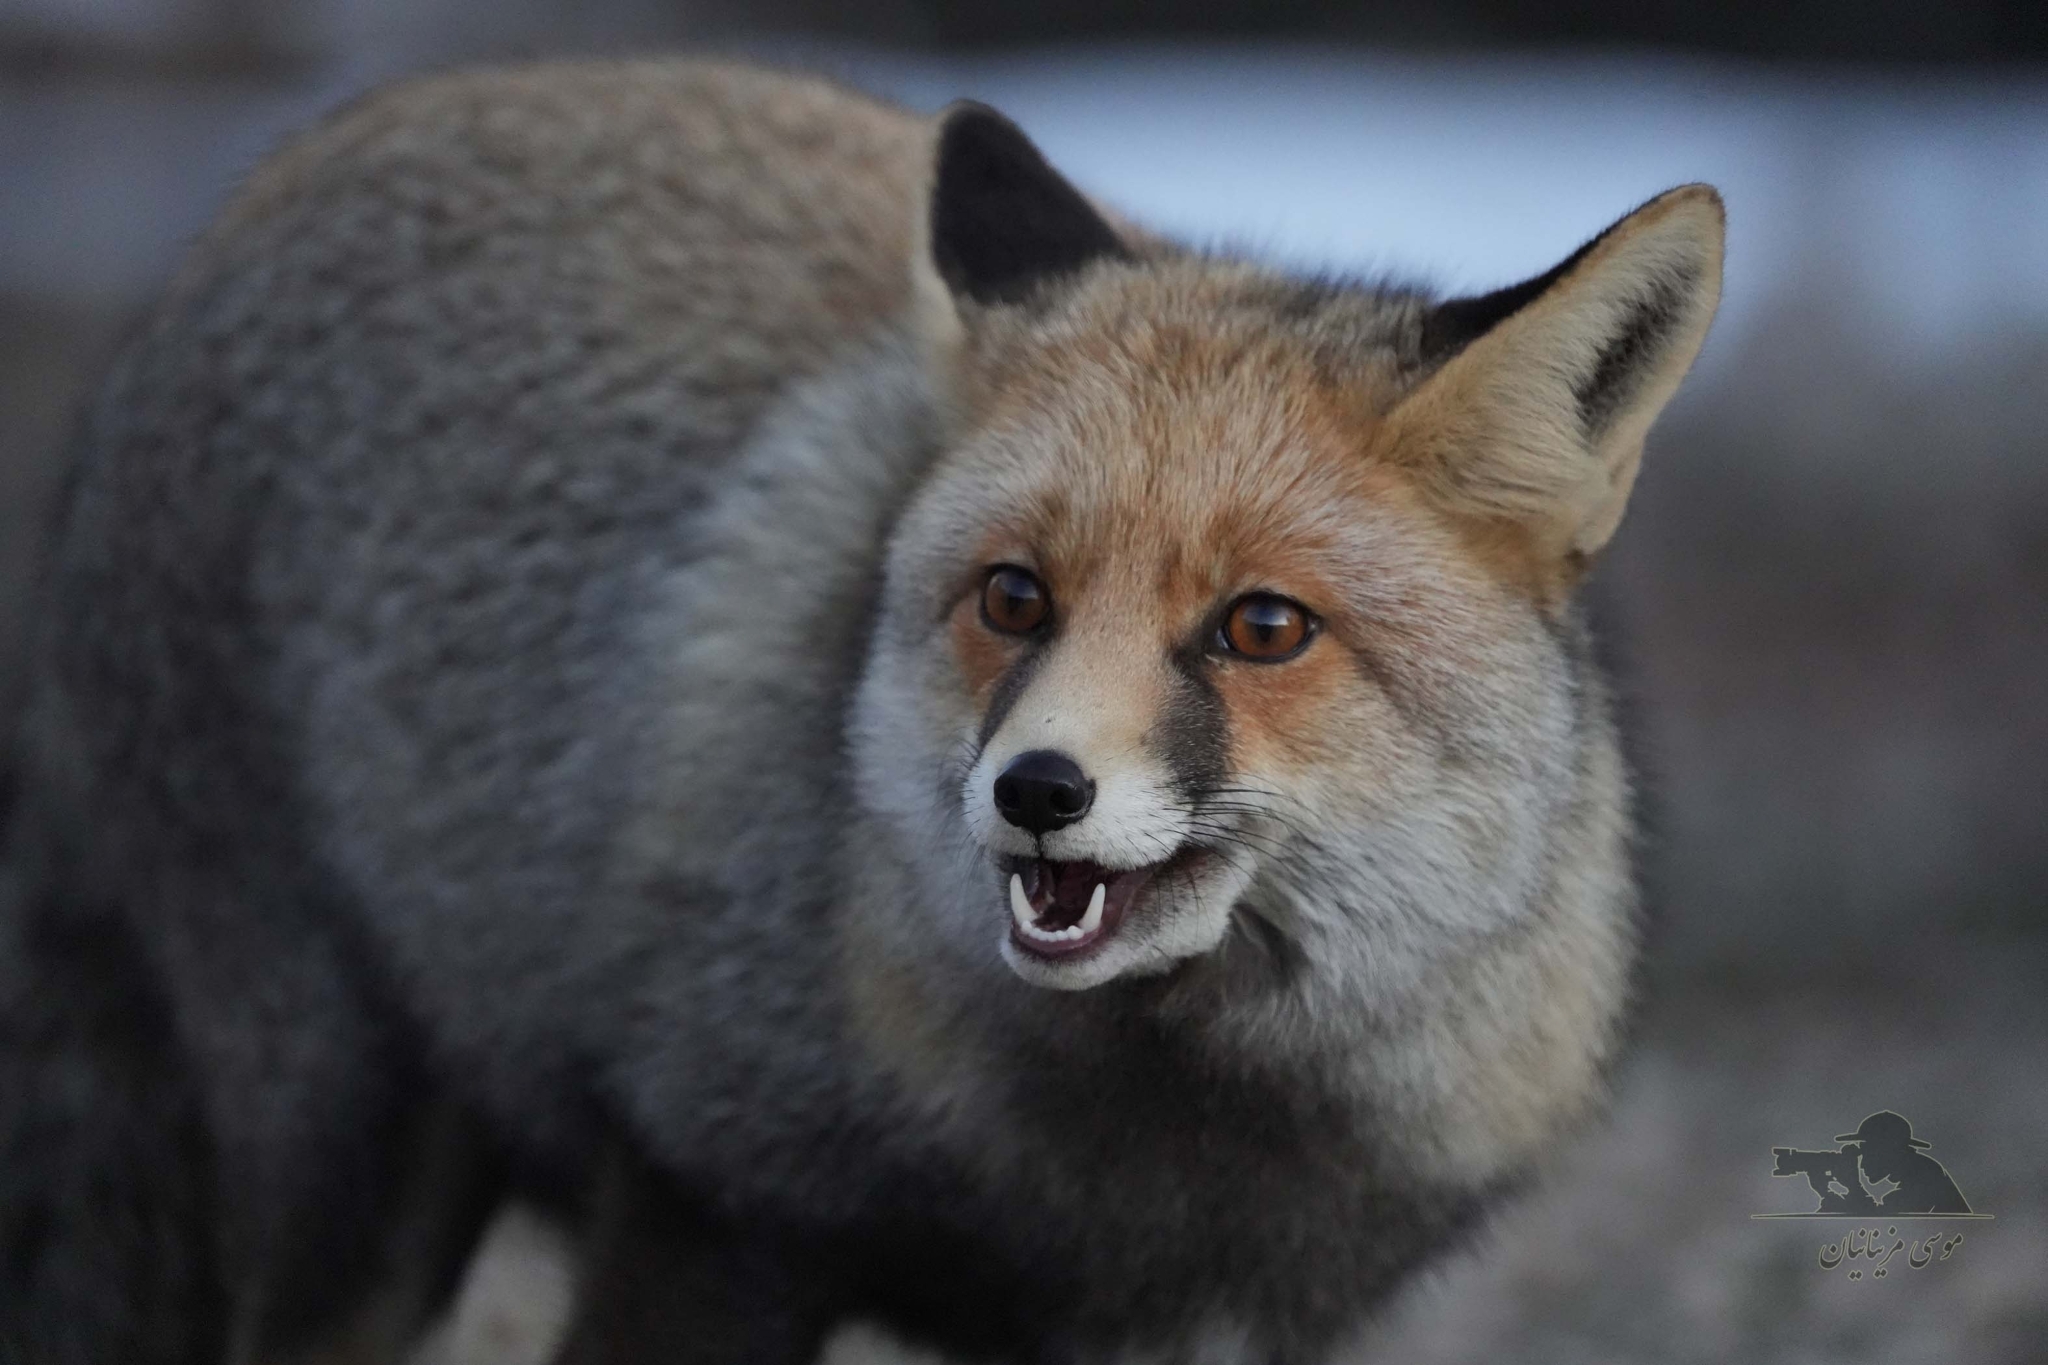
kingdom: Animalia
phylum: Chordata
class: Mammalia
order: Carnivora
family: Canidae
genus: Vulpes
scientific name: Vulpes vulpes
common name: Red fox
